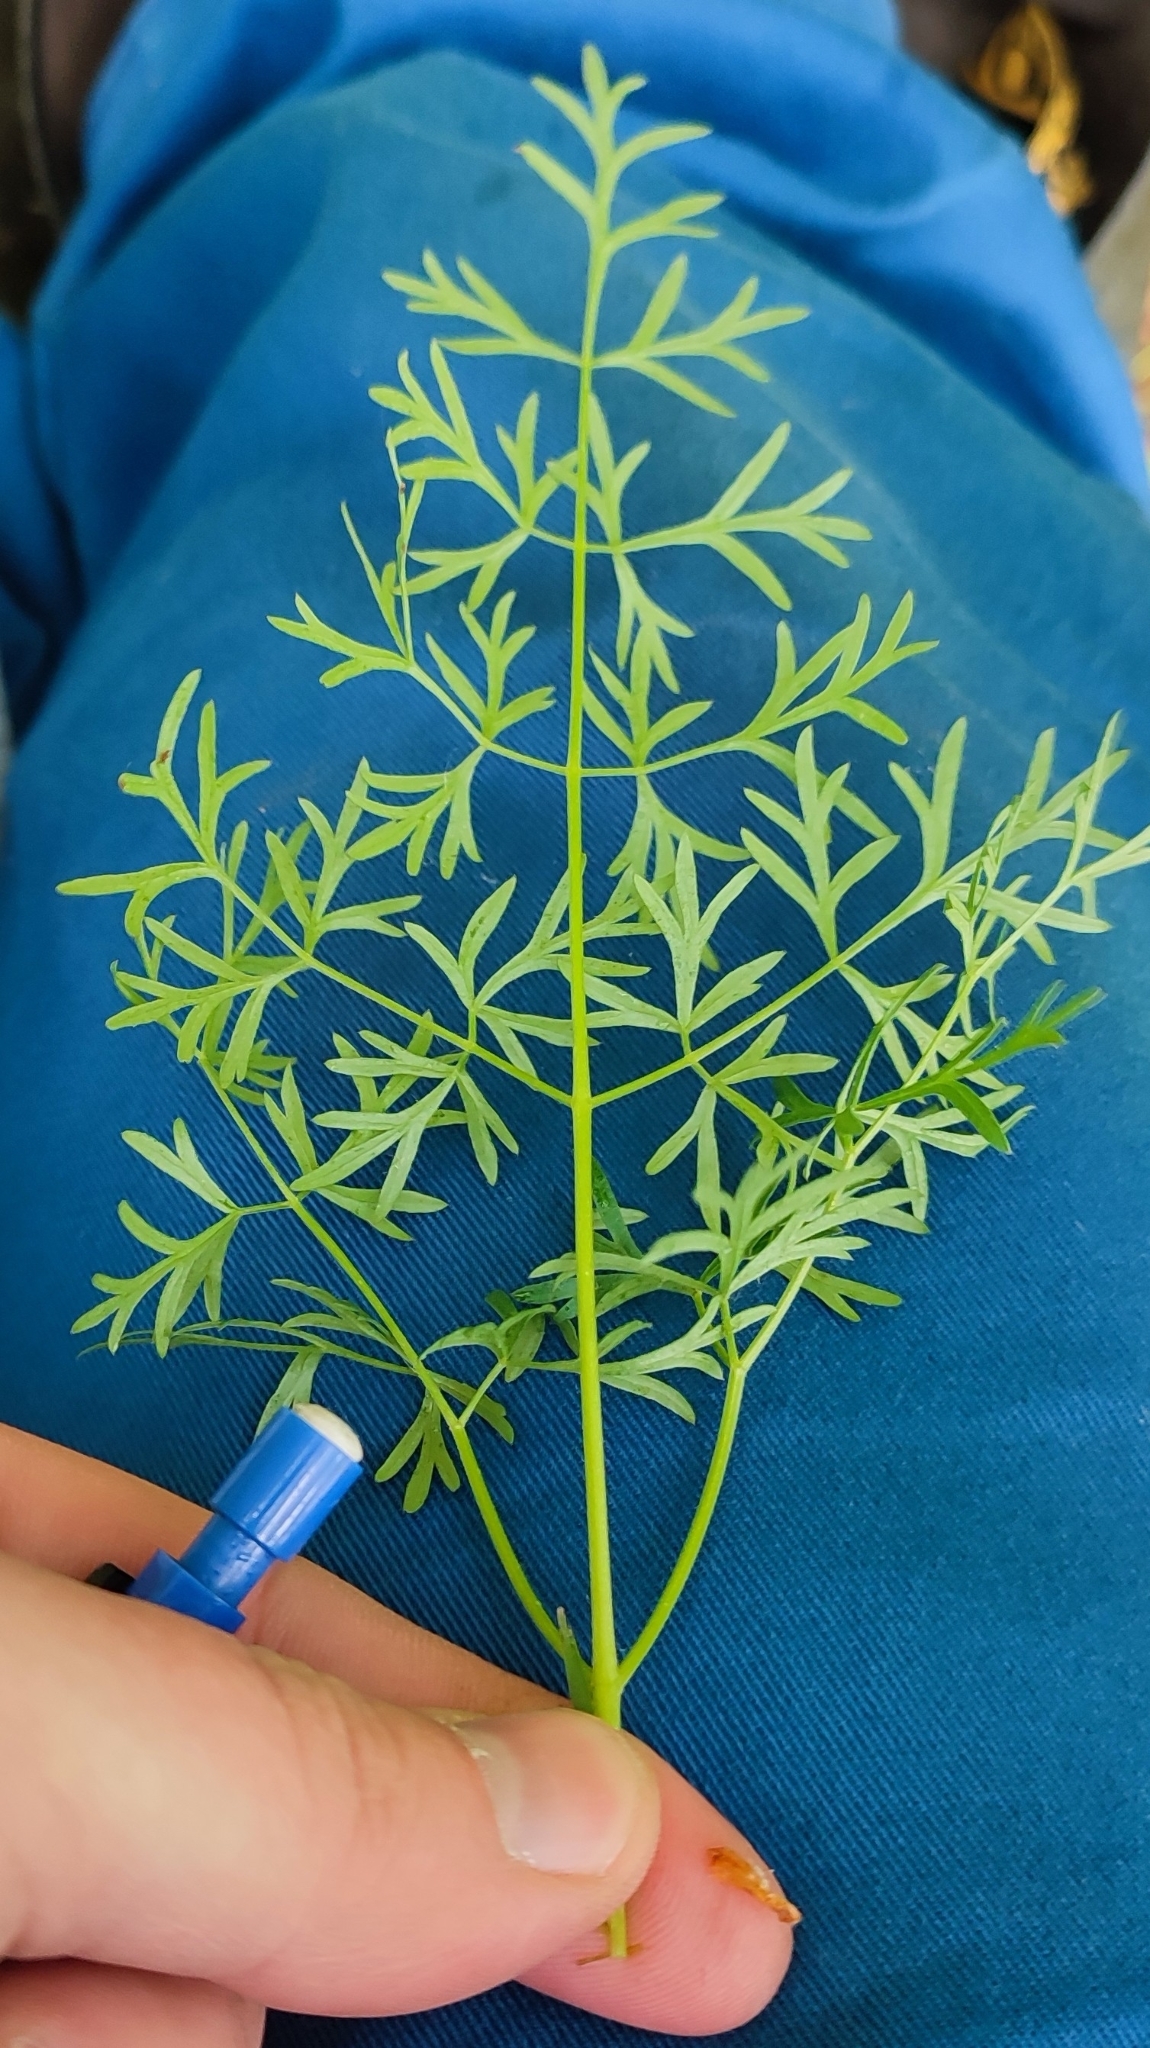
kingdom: Plantae
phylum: Tracheophyta
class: Magnoliopsida
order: Apiales
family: Apiaceae
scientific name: Apiaceae
